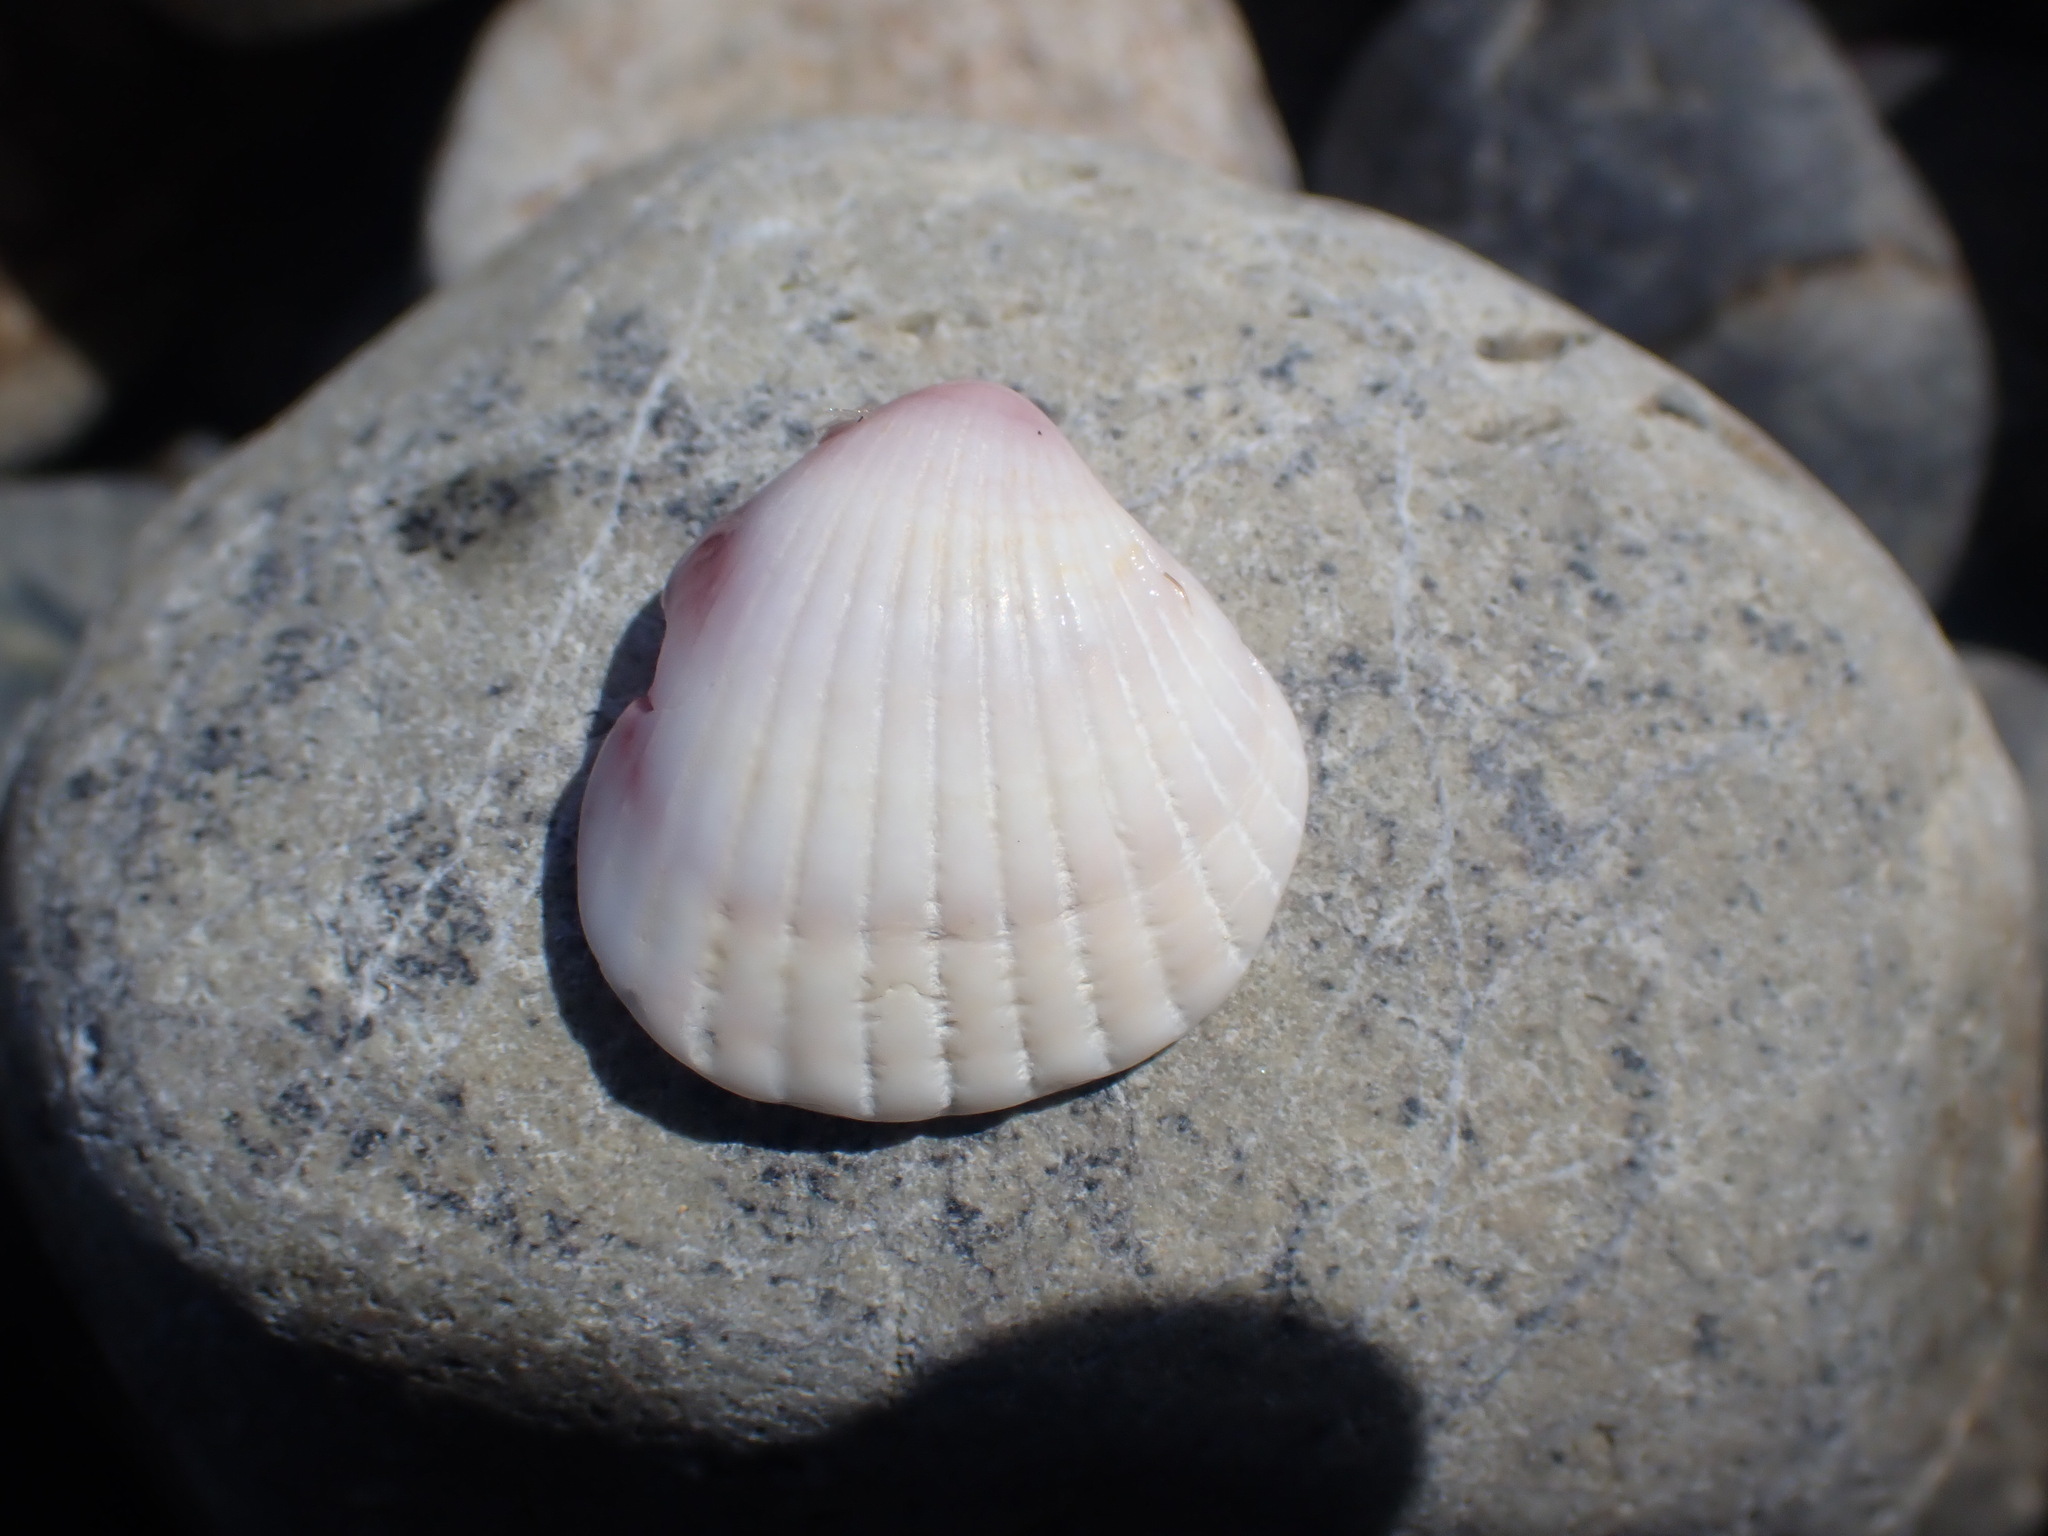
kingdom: Animalia
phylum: Mollusca
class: Bivalvia
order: Carditida
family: Carditidae
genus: Purpurocardia
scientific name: Purpurocardia purpurata
